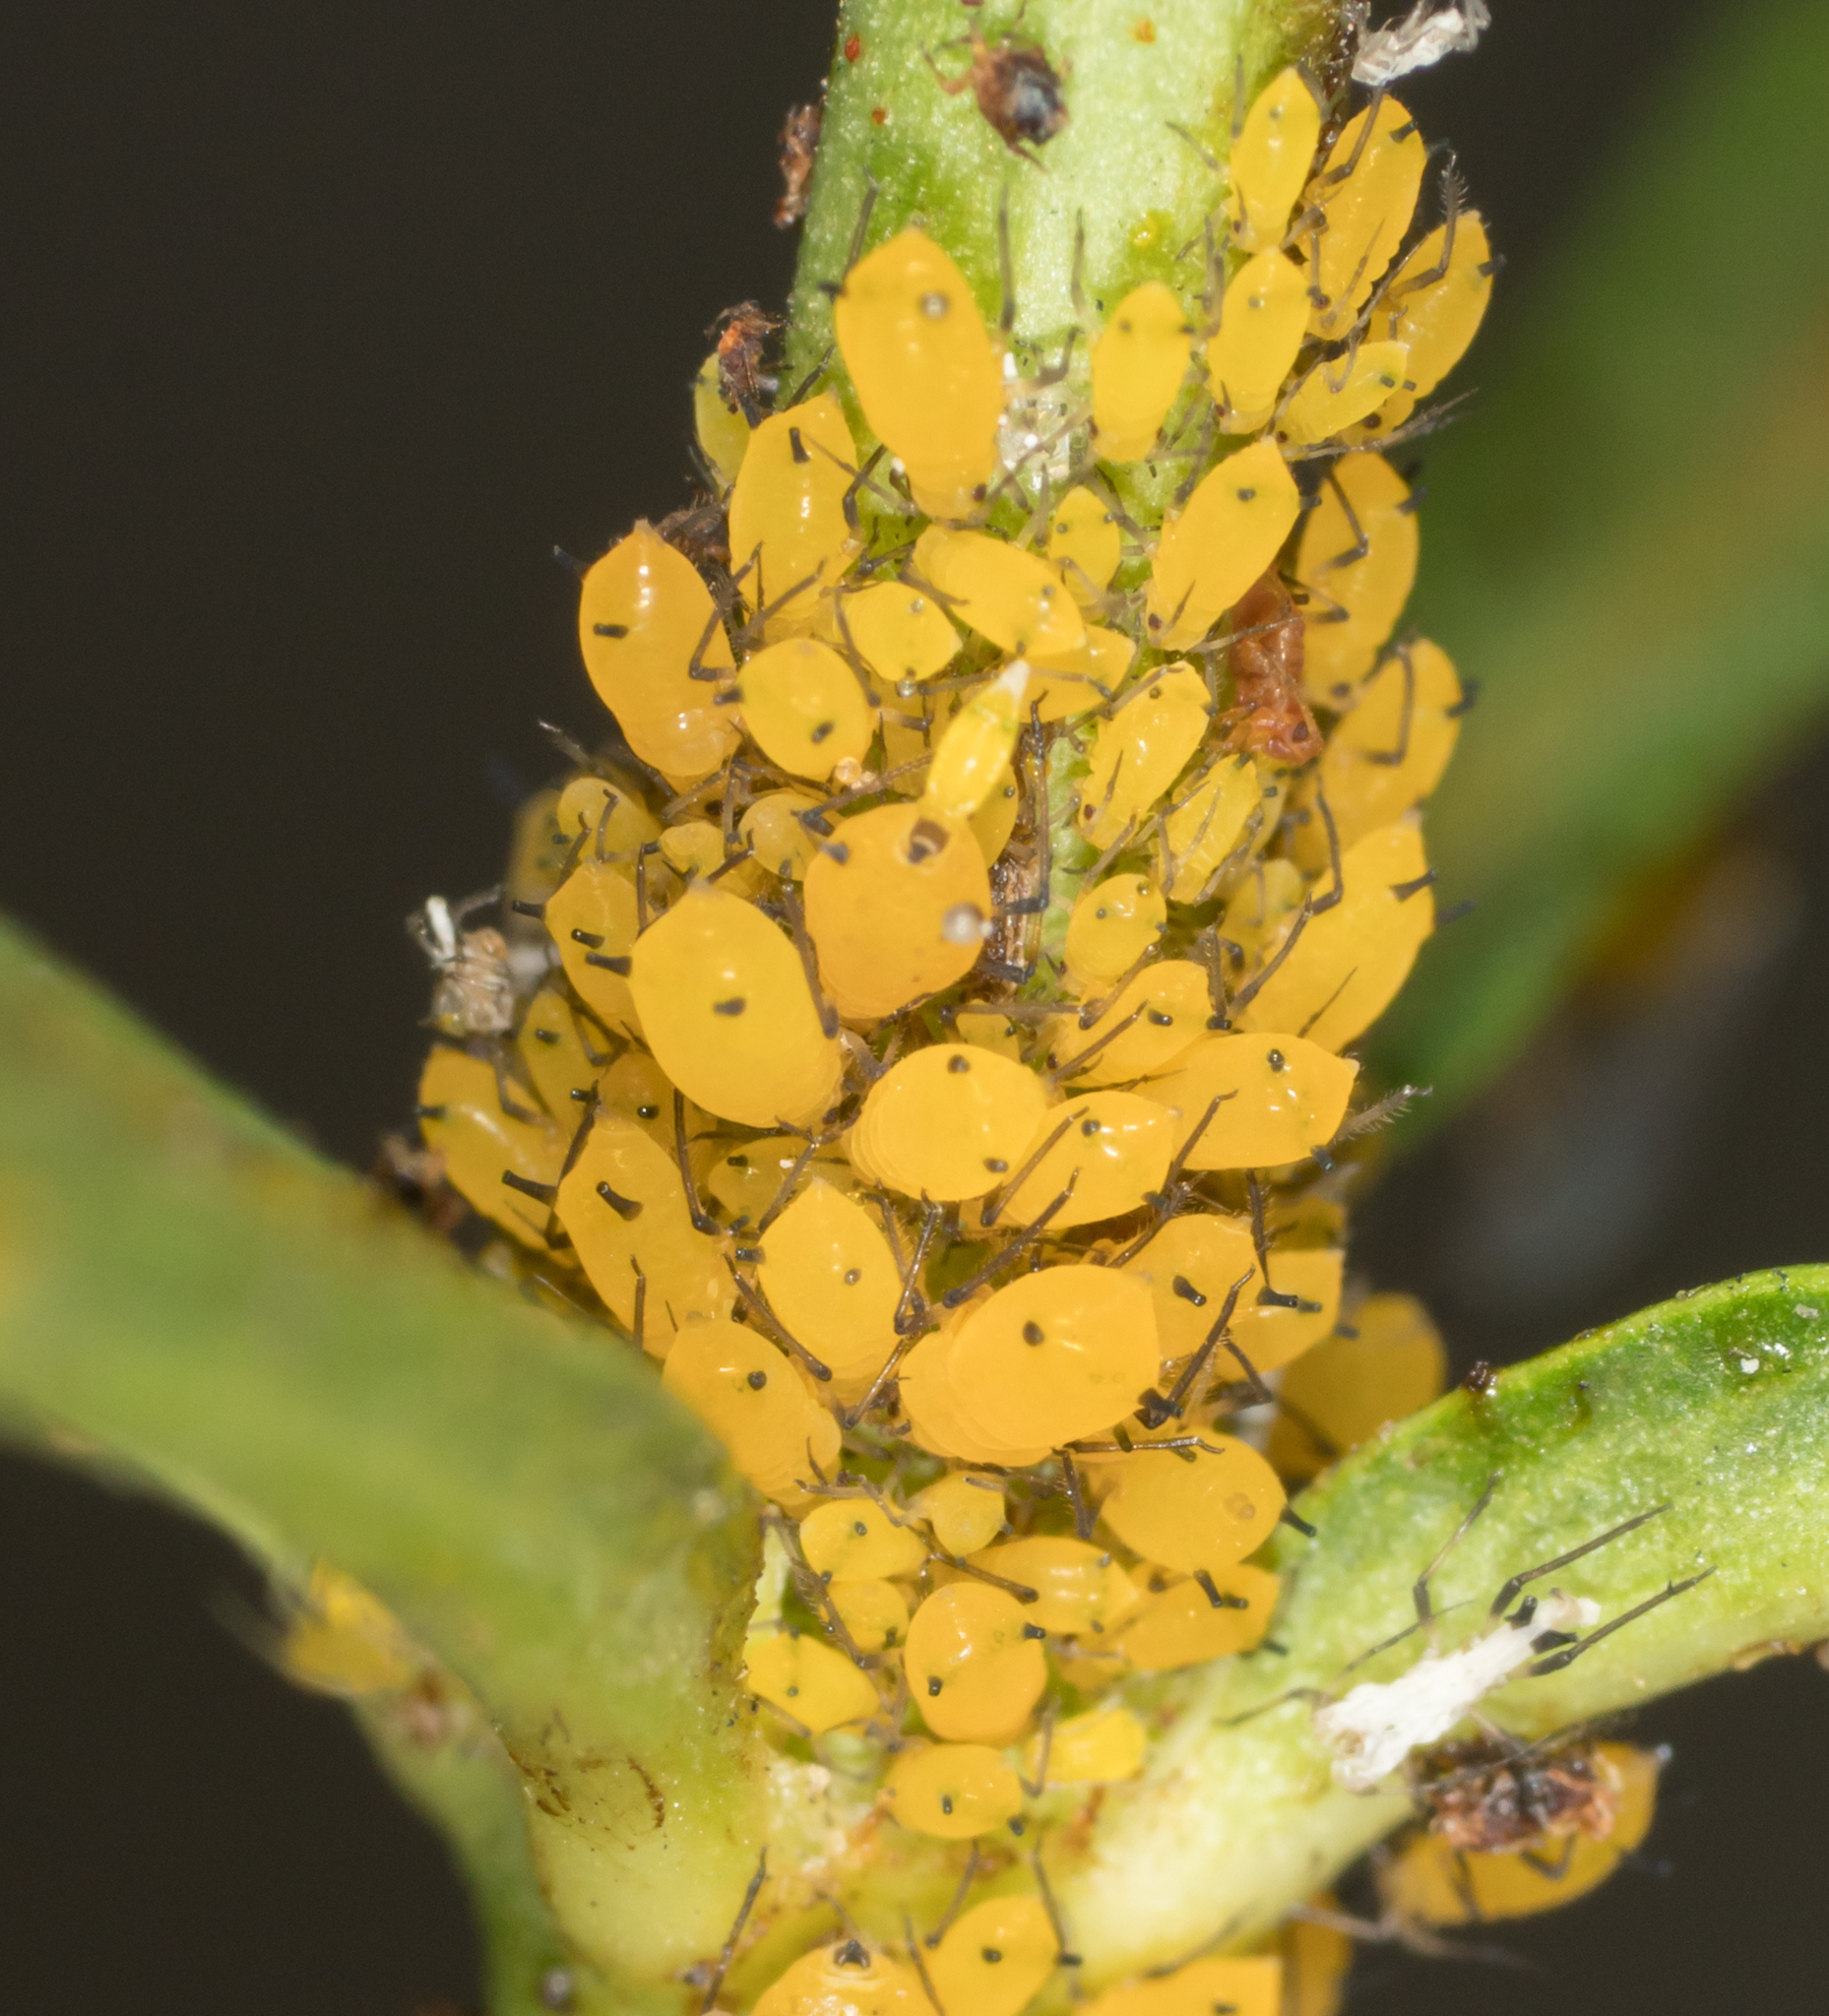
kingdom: Animalia
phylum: Arthropoda
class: Insecta
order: Hemiptera
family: Aphididae
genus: Aphis
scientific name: Aphis nerii
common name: Oleander aphid
